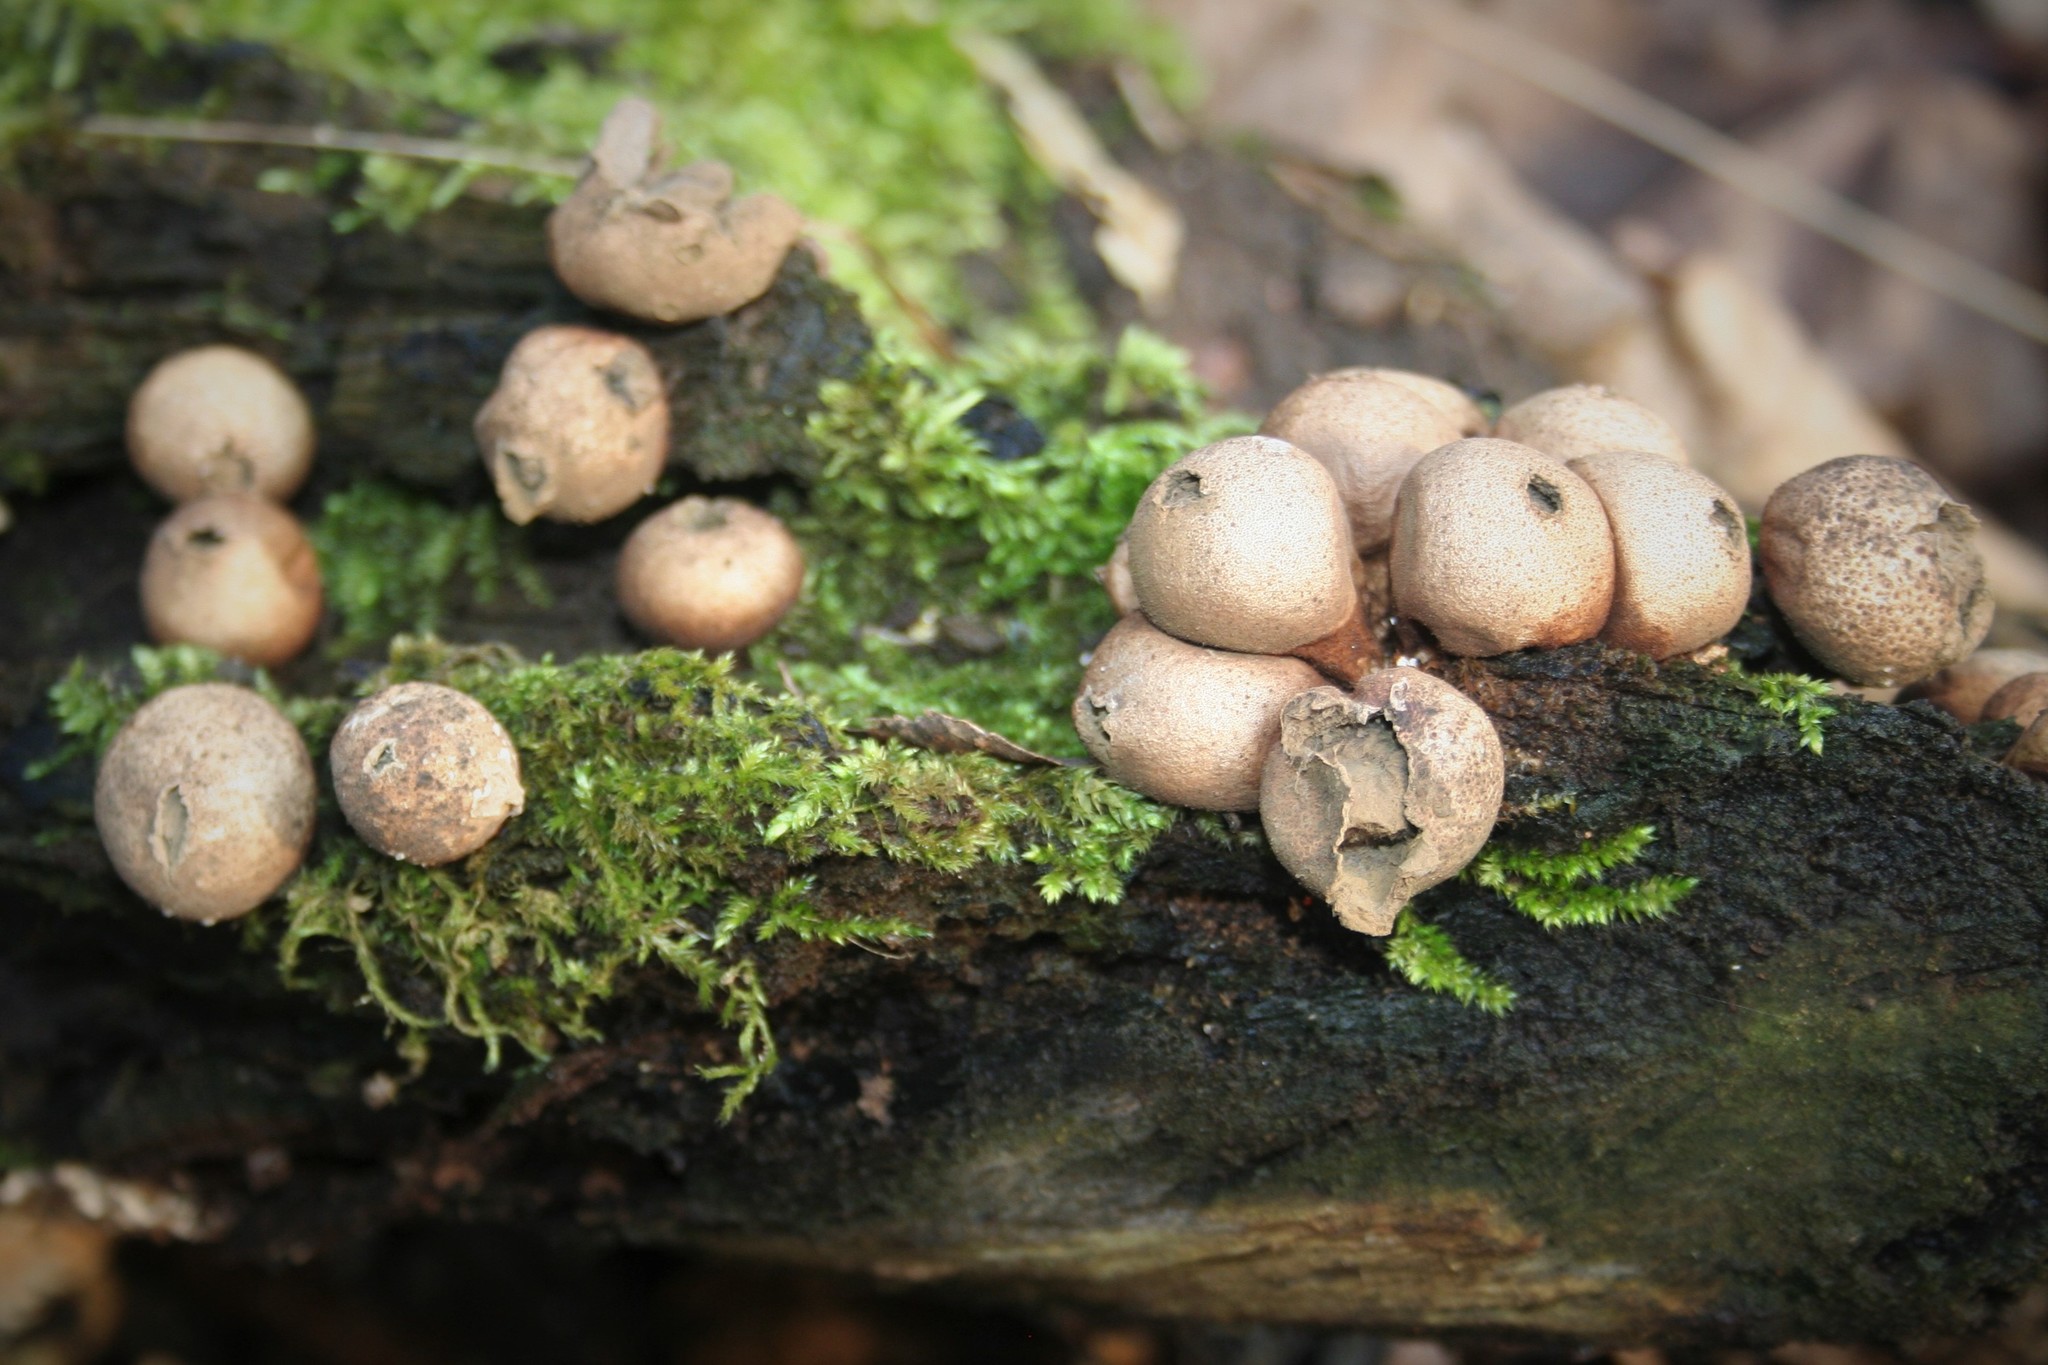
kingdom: Fungi
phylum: Basidiomycota
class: Agaricomycetes
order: Agaricales
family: Lycoperdaceae
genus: Apioperdon
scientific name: Apioperdon pyriforme
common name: Pear-shaped puffball
